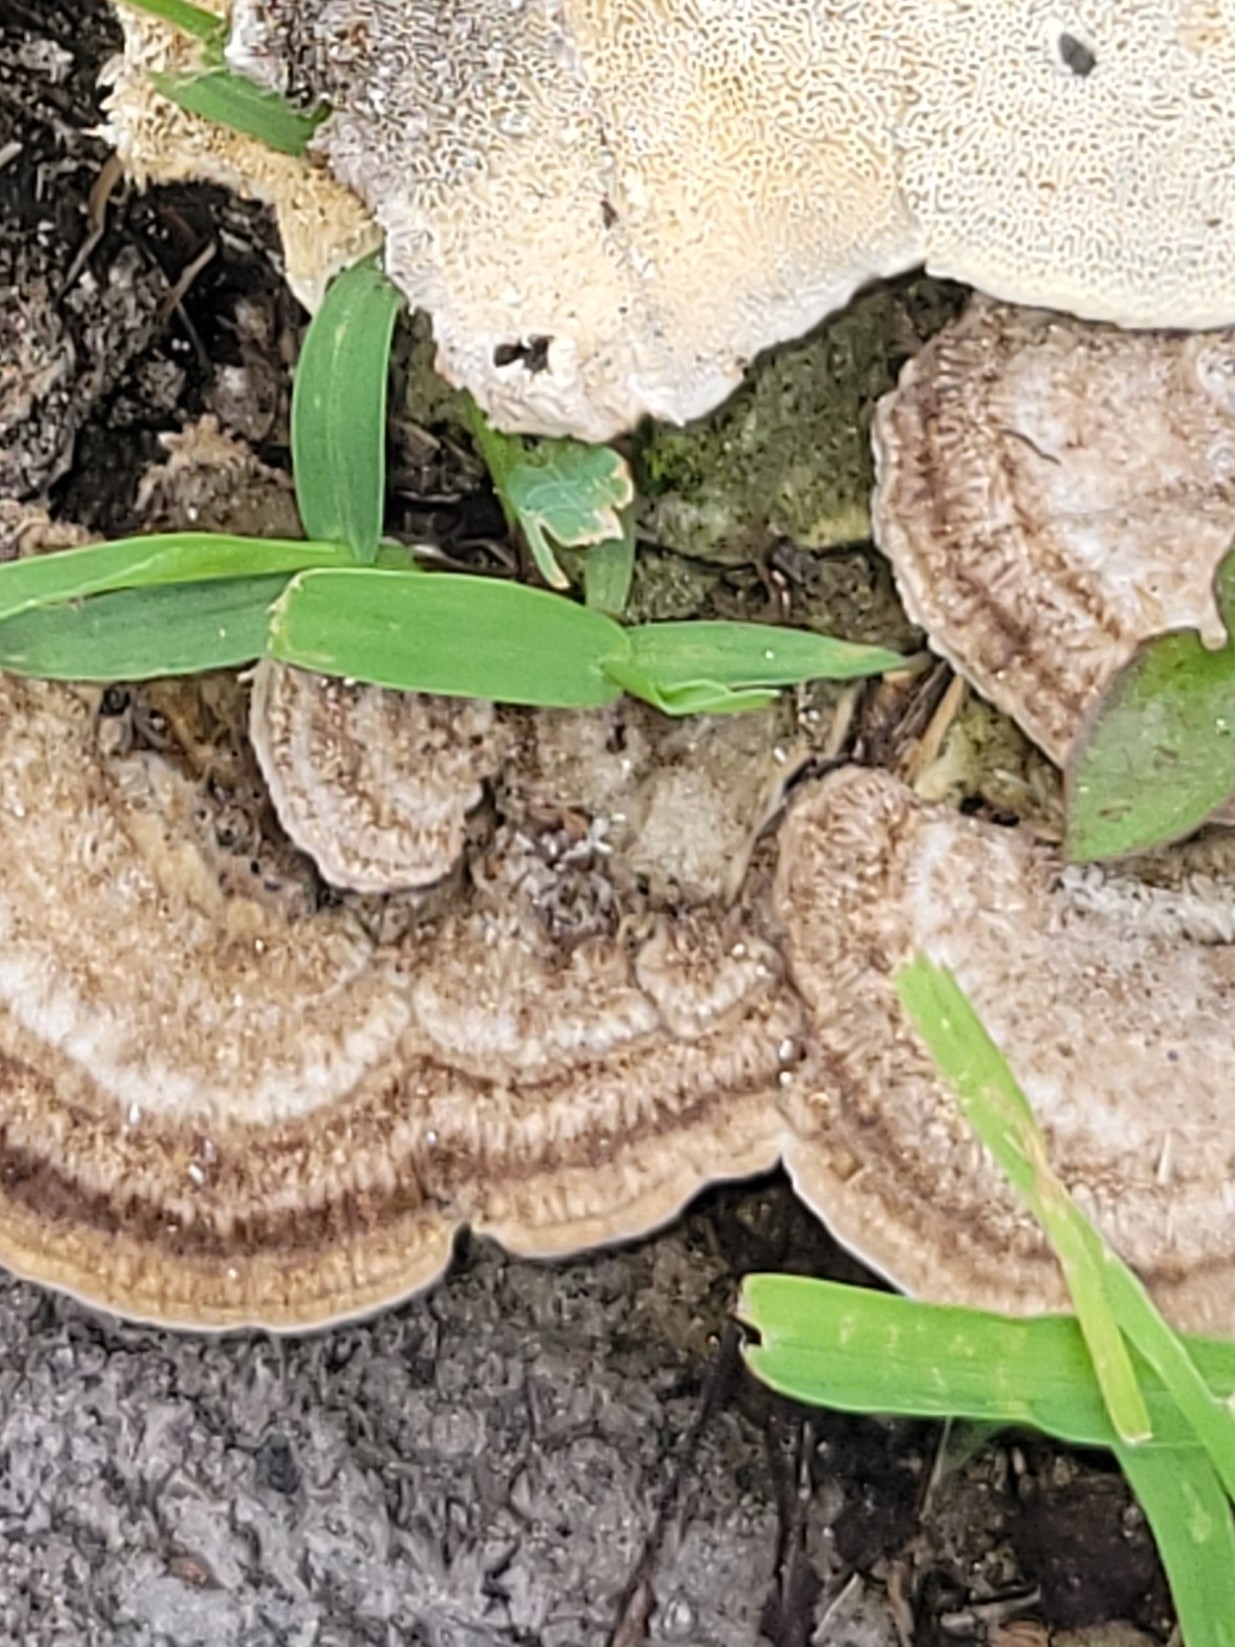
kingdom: Fungi
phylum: Basidiomycota
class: Agaricomycetes
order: Polyporales
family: Irpicaceae
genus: Trametopsis
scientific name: Trametopsis cervina
